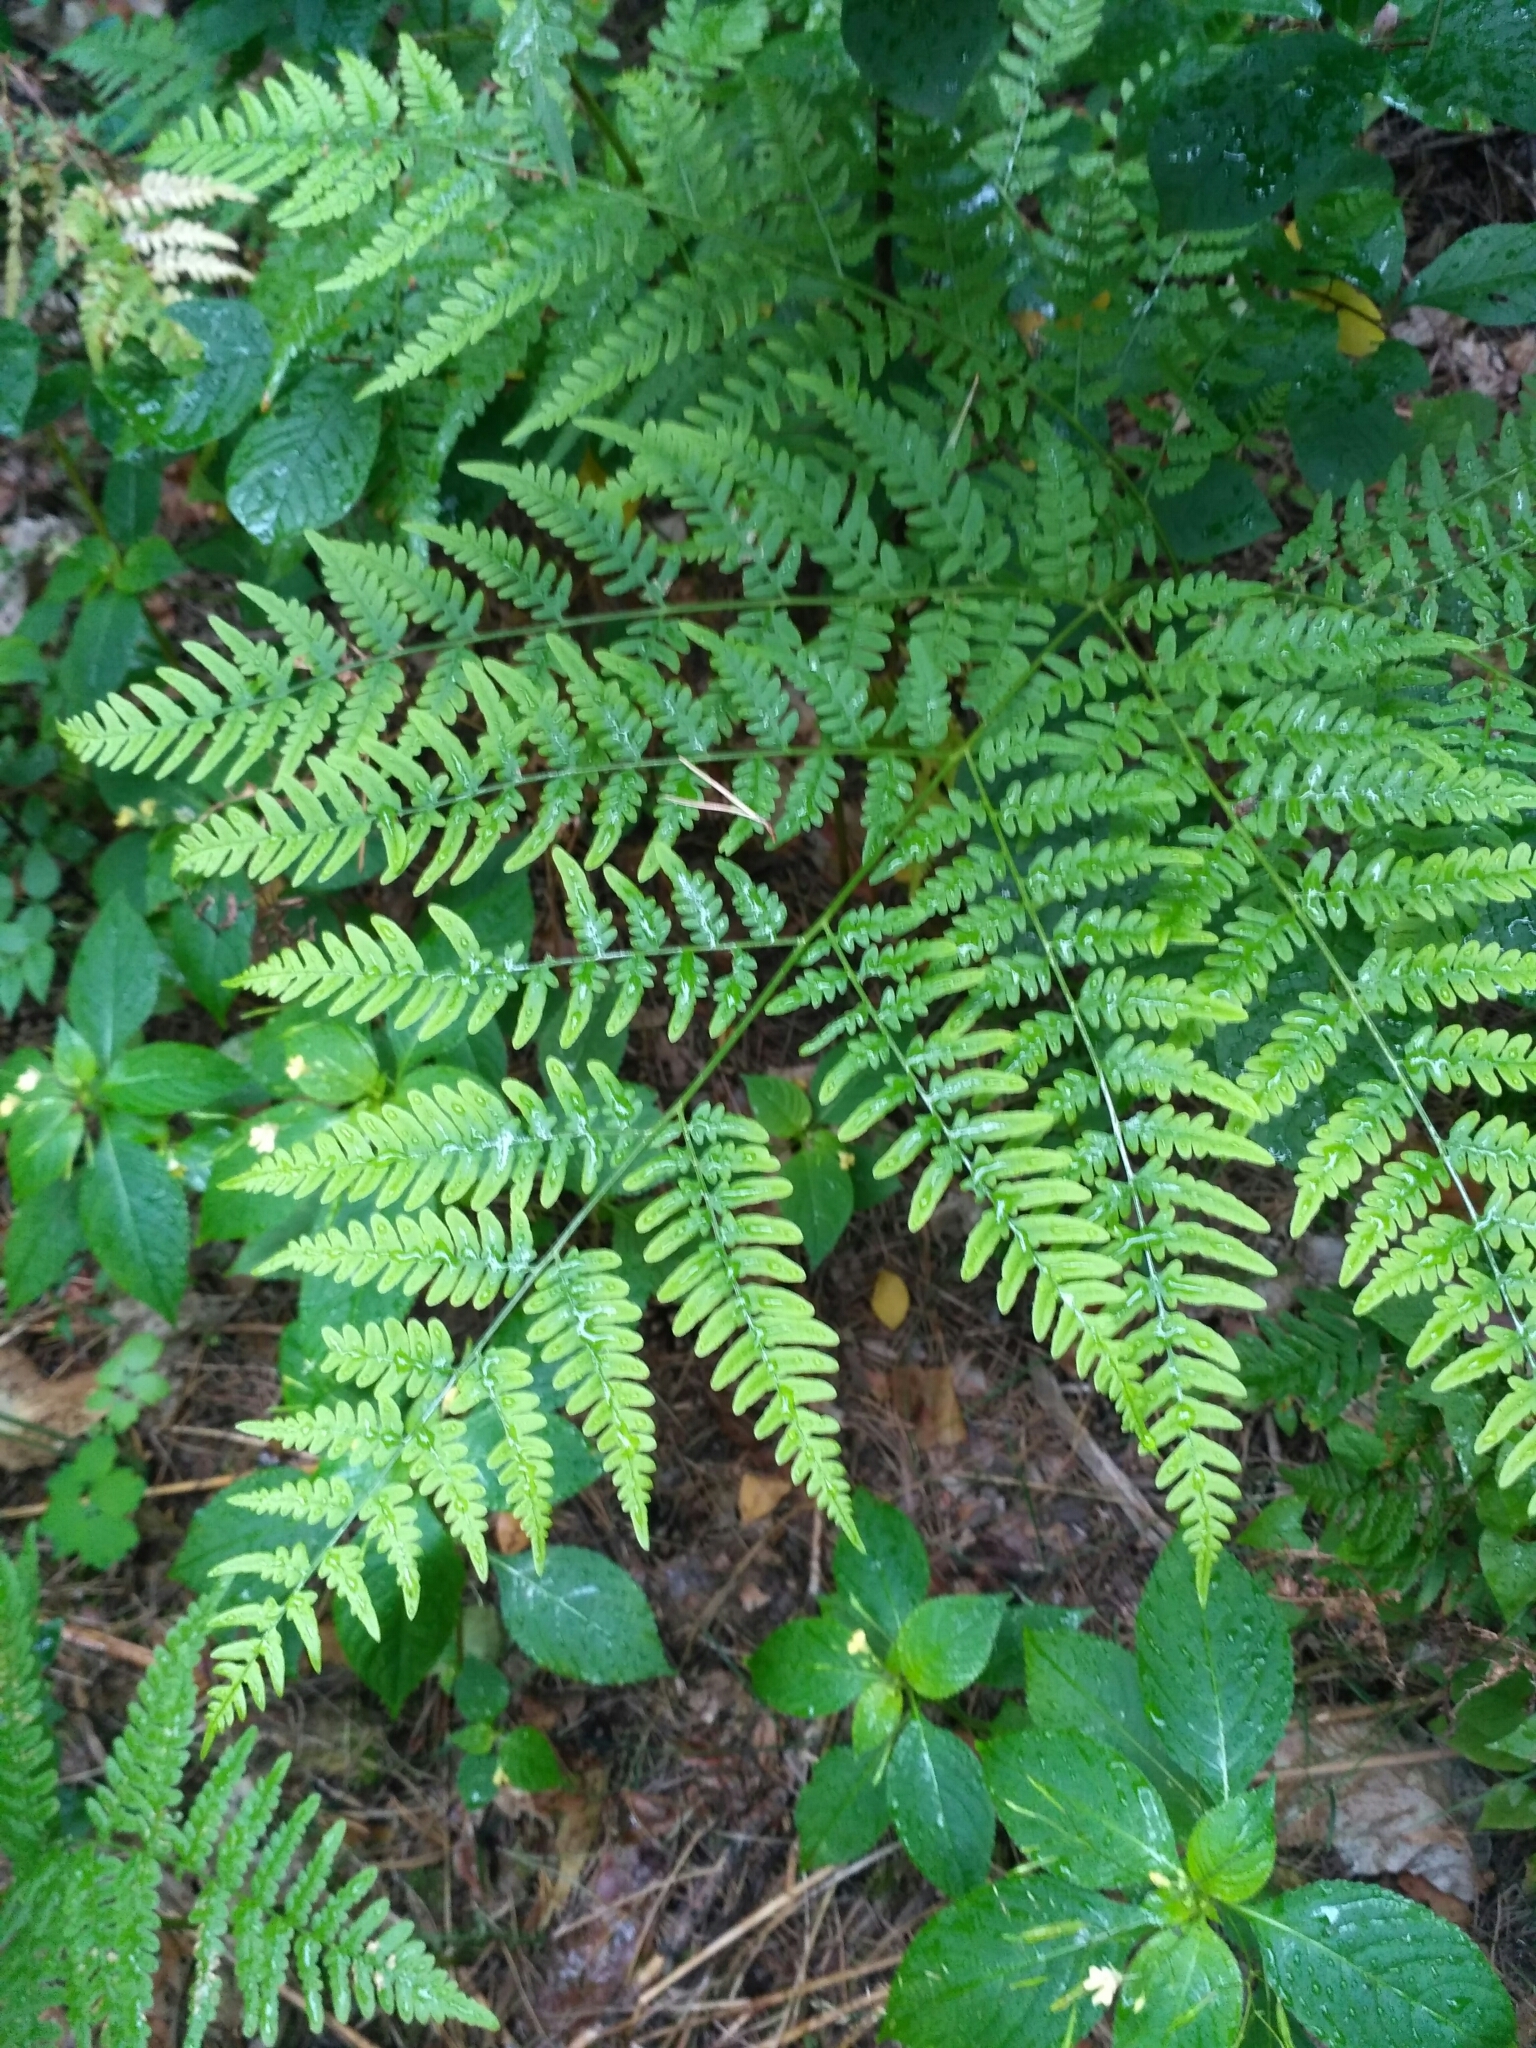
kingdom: Plantae
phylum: Tracheophyta
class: Polypodiopsida
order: Polypodiales
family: Dennstaedtiaceae
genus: Pteridium
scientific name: Pteridium aquilinum
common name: Bracken
